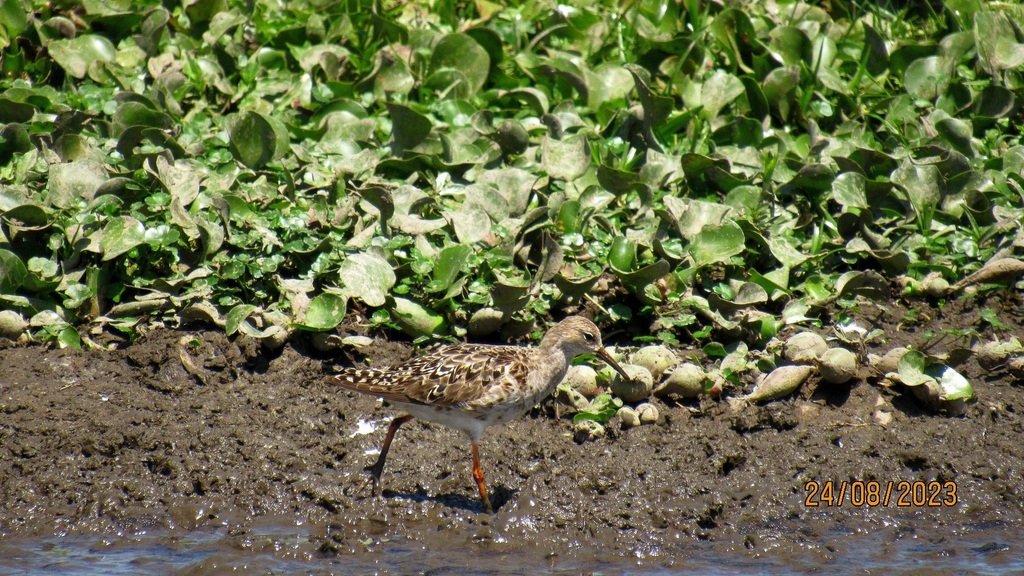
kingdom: Animalia
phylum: Chordata
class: Aves
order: Charadriiformes
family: Scolopacidae
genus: Calidris
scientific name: Calidris pugnax
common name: Ruff
